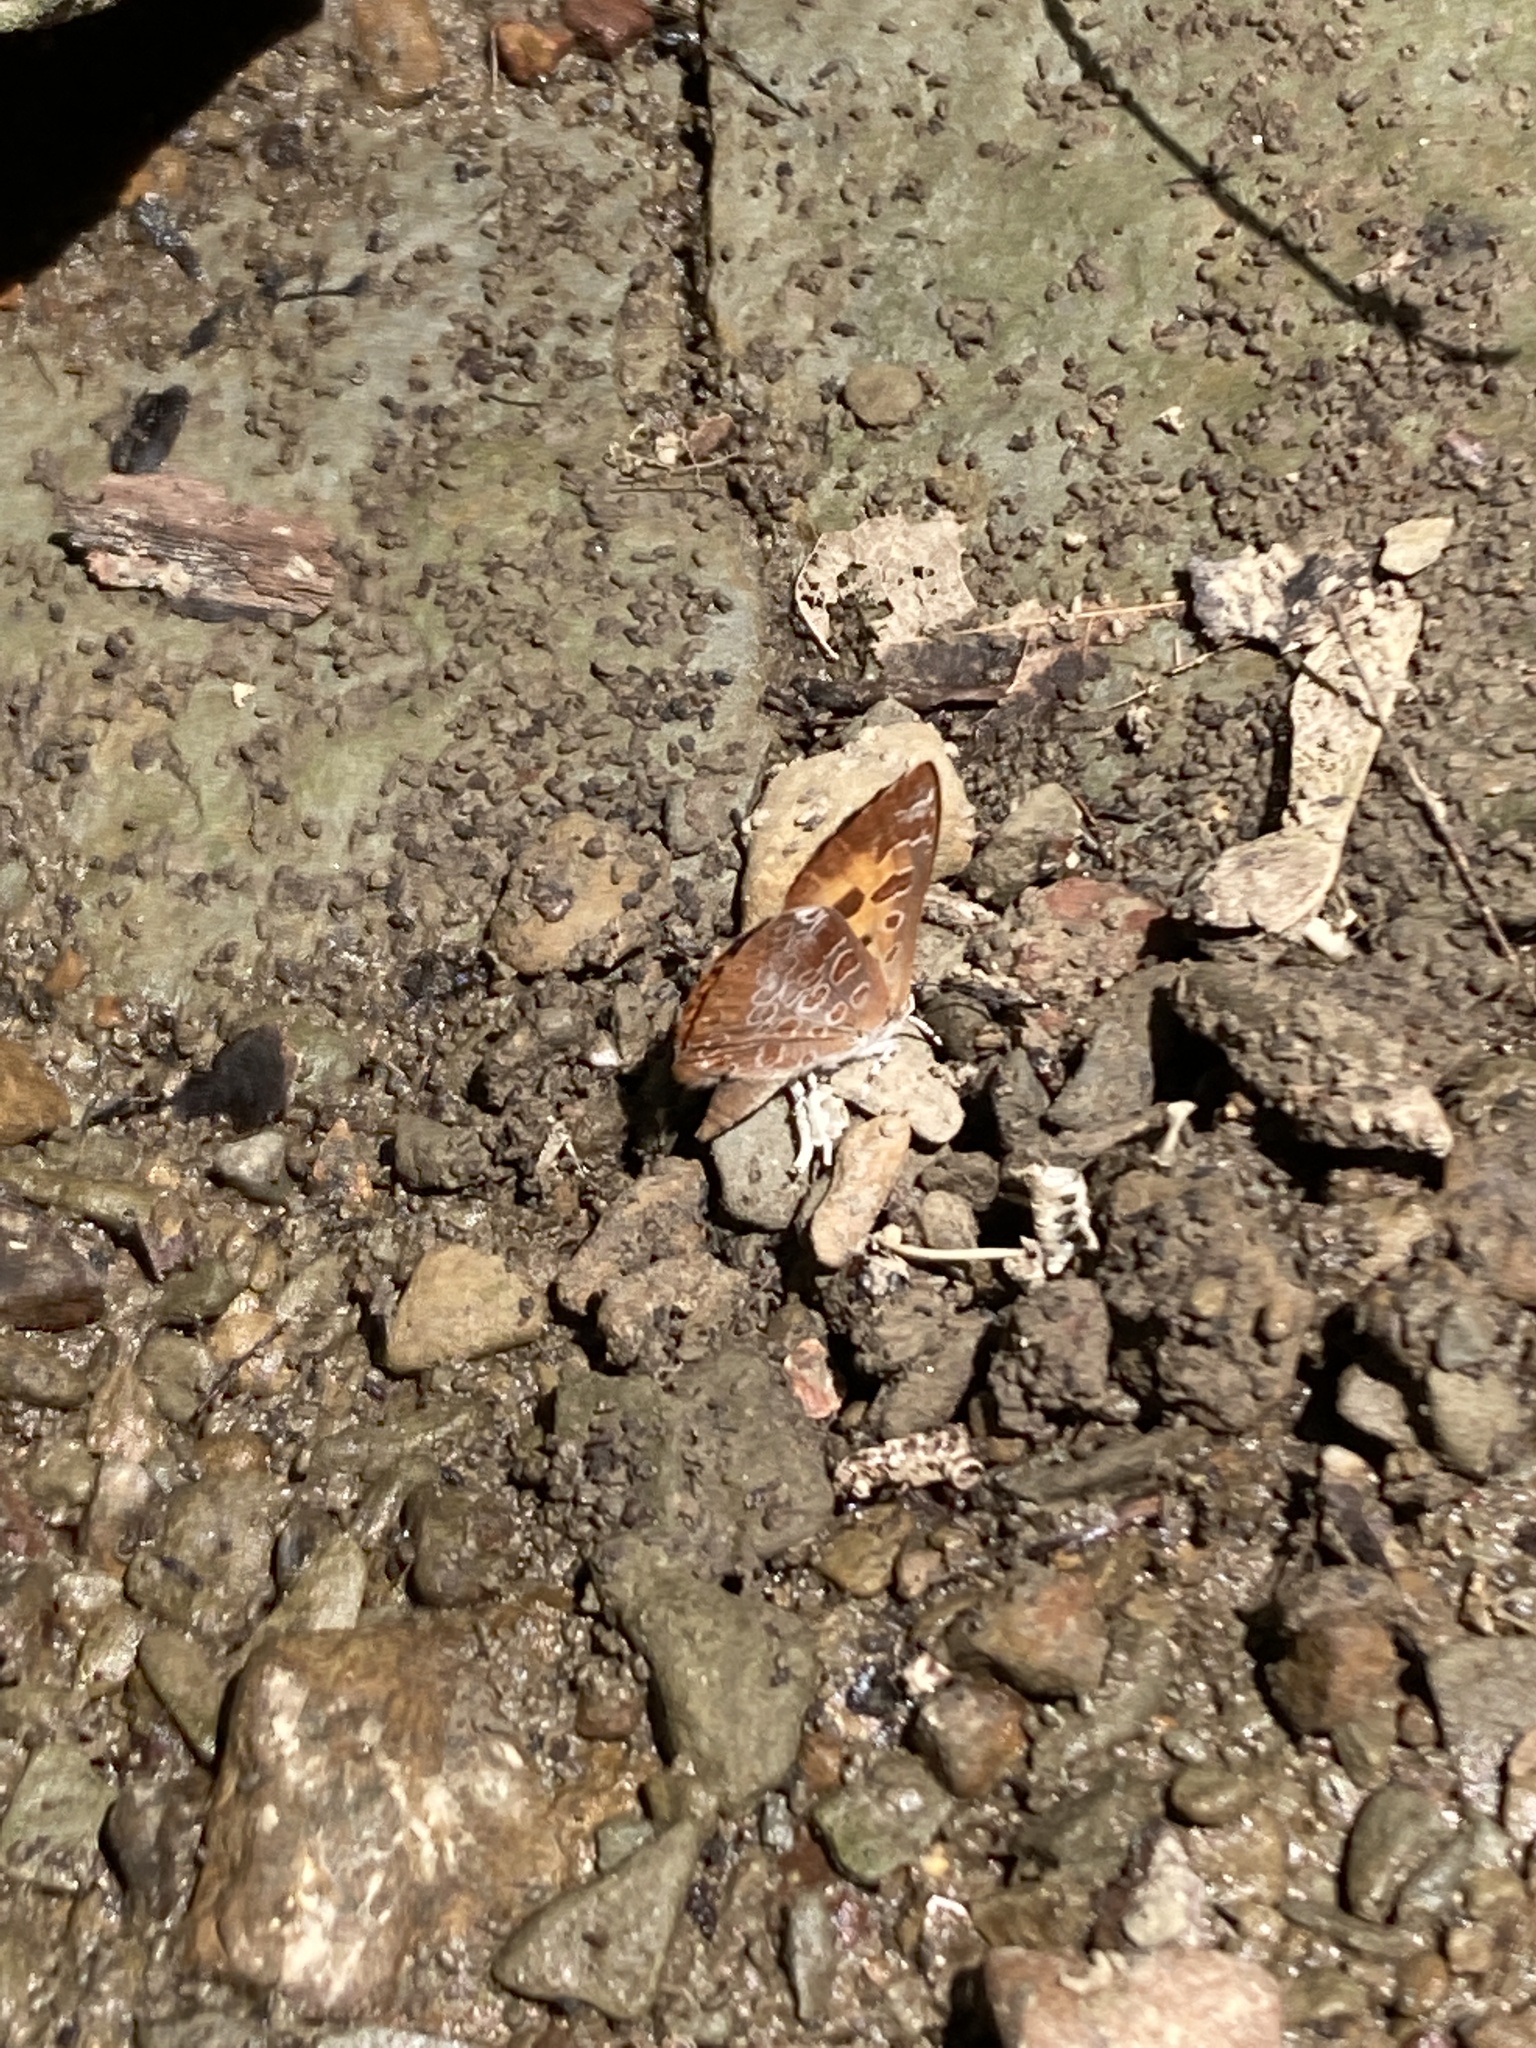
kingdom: Animalia
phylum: Arthropoda
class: Insecta
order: Lepidoptera
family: Lycaenidae
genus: Feniseca
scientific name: Feniseca tarquinius
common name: Harvester
